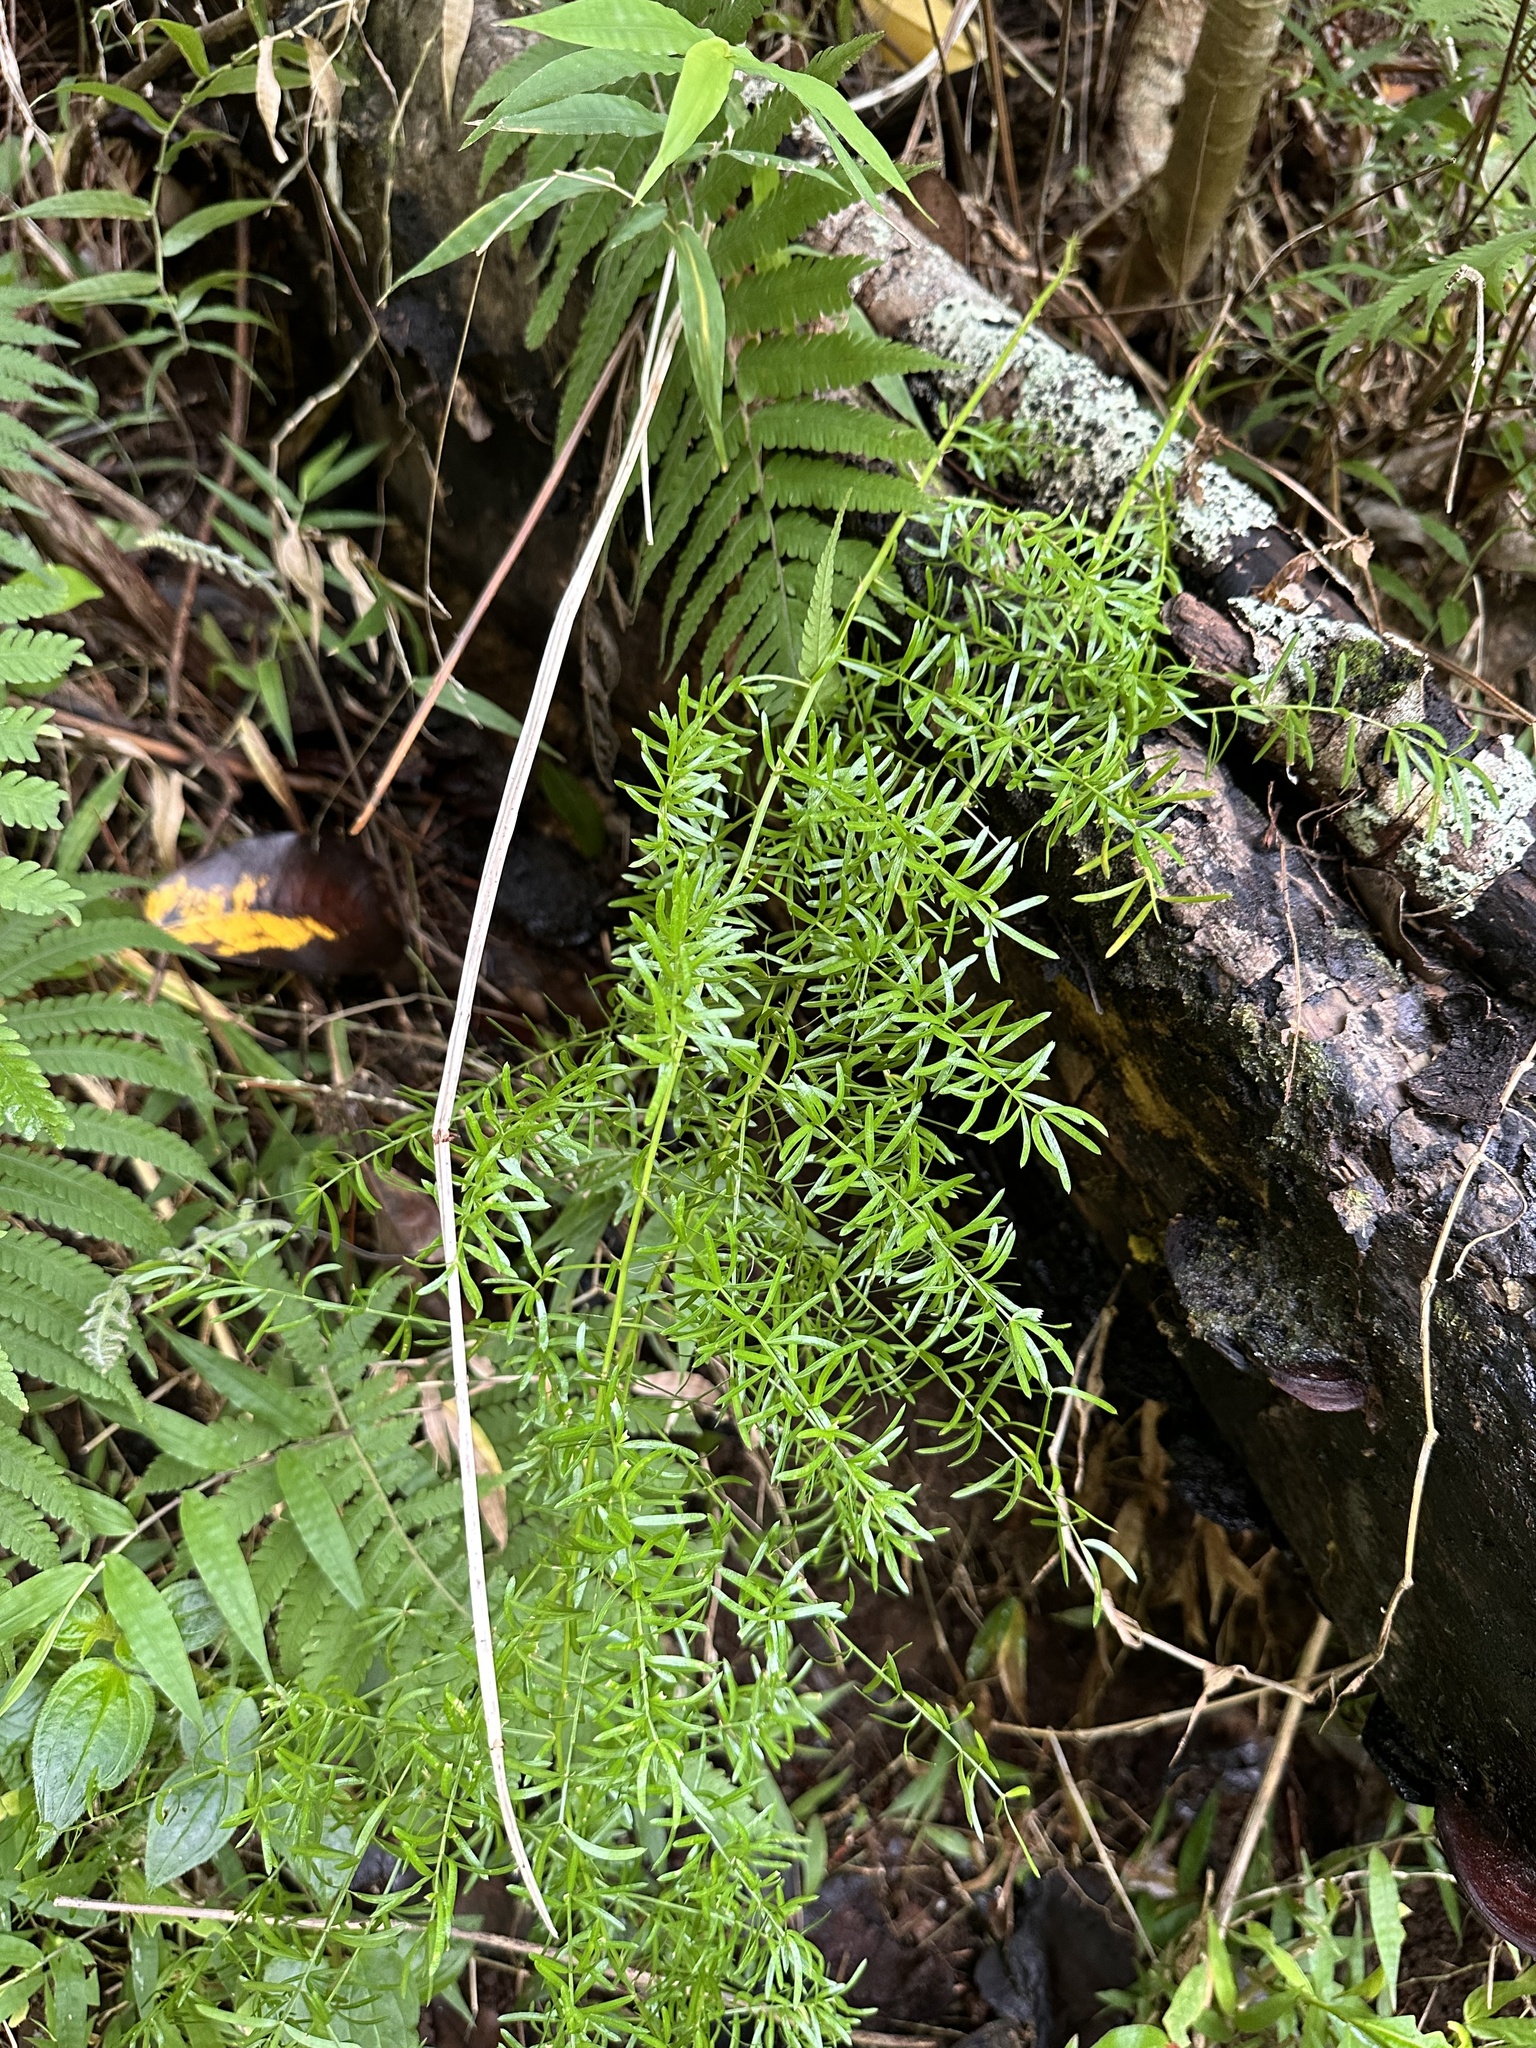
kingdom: Plantae
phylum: Tracheophyta
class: Liliopsida
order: Asparagales
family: Asparagaceae
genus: Asparagus
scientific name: Asparagus aethiopicus
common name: Sprenger's asparagus fern
